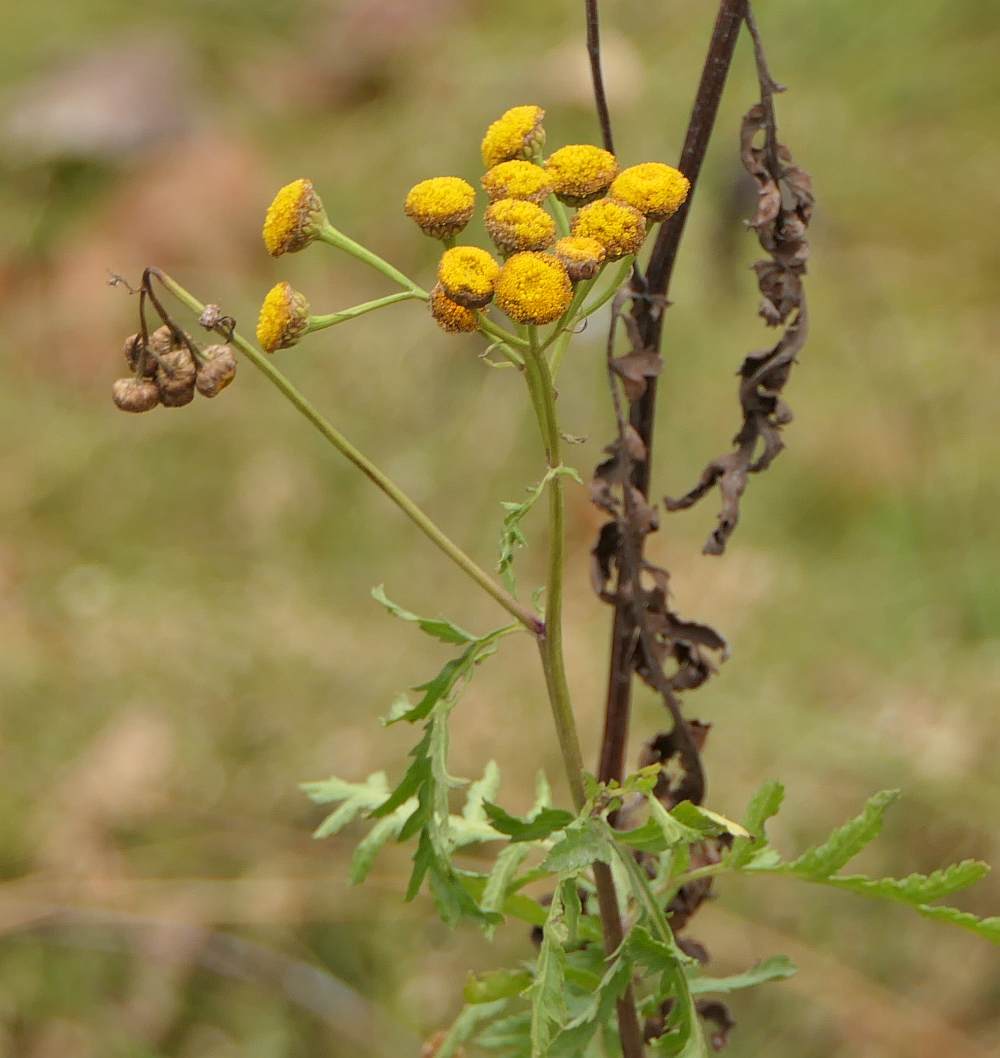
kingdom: Plantae
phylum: Tracheophyta
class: Magnoliopsida
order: Asterales
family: Asteraceae
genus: Tanacetum
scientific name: Tanacetum vulgare
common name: Common tansy
